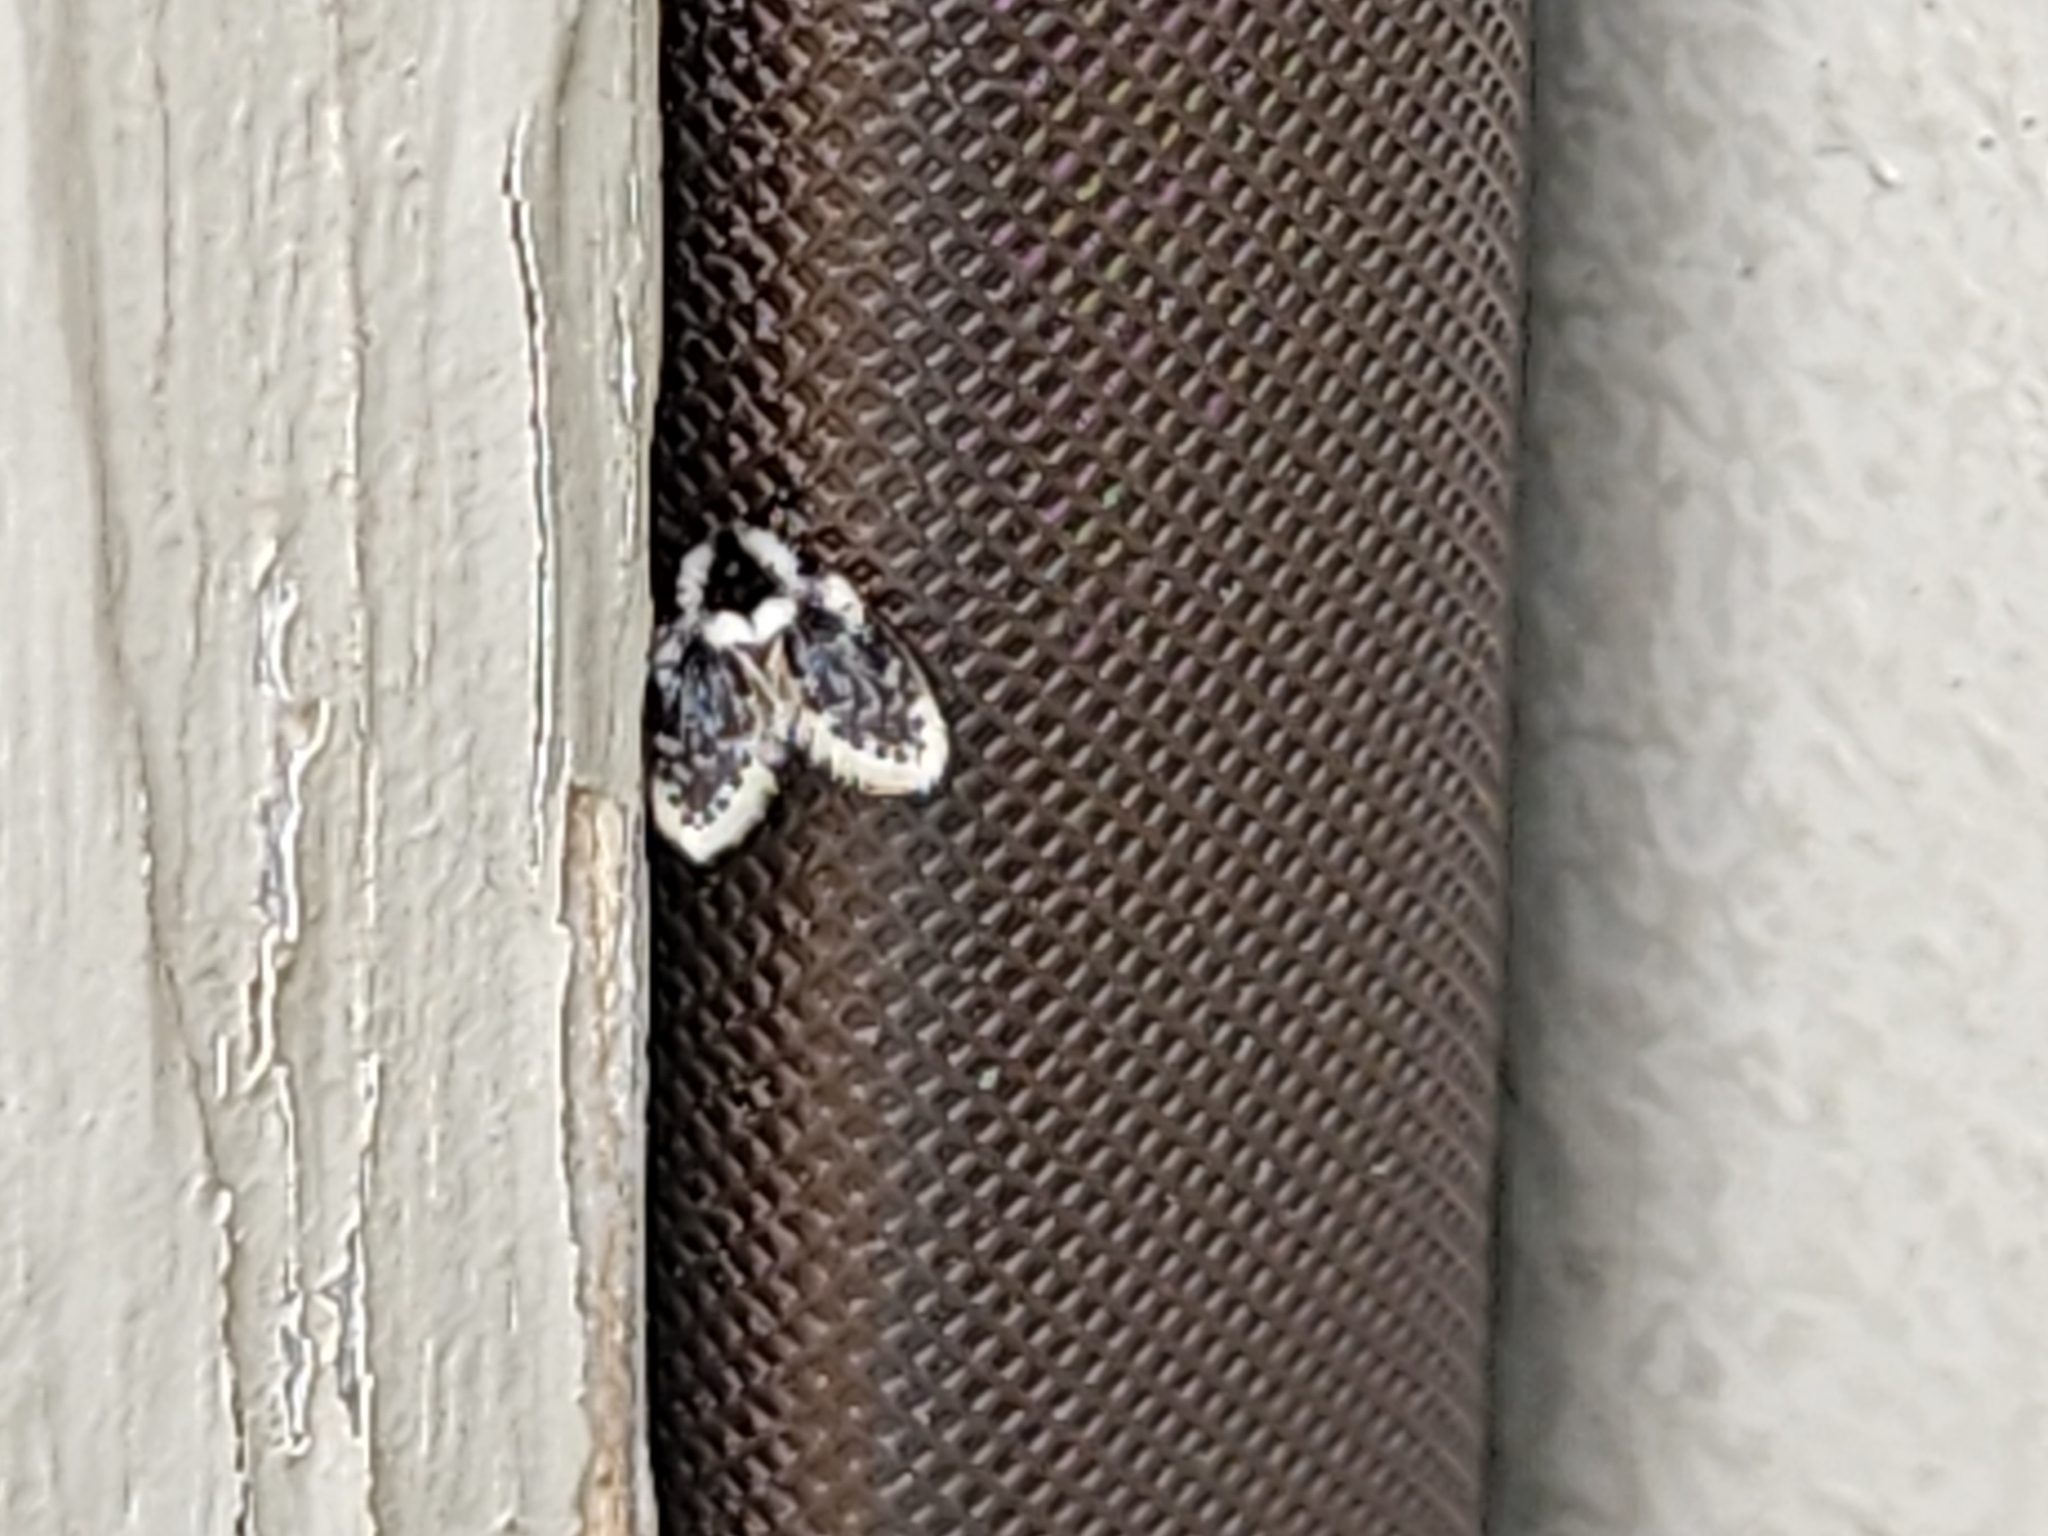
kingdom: Animalia
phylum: Arthropoda
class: Insecta
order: Diptera
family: Psychodidae
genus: Lepiseodina
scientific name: Lepiseodina
